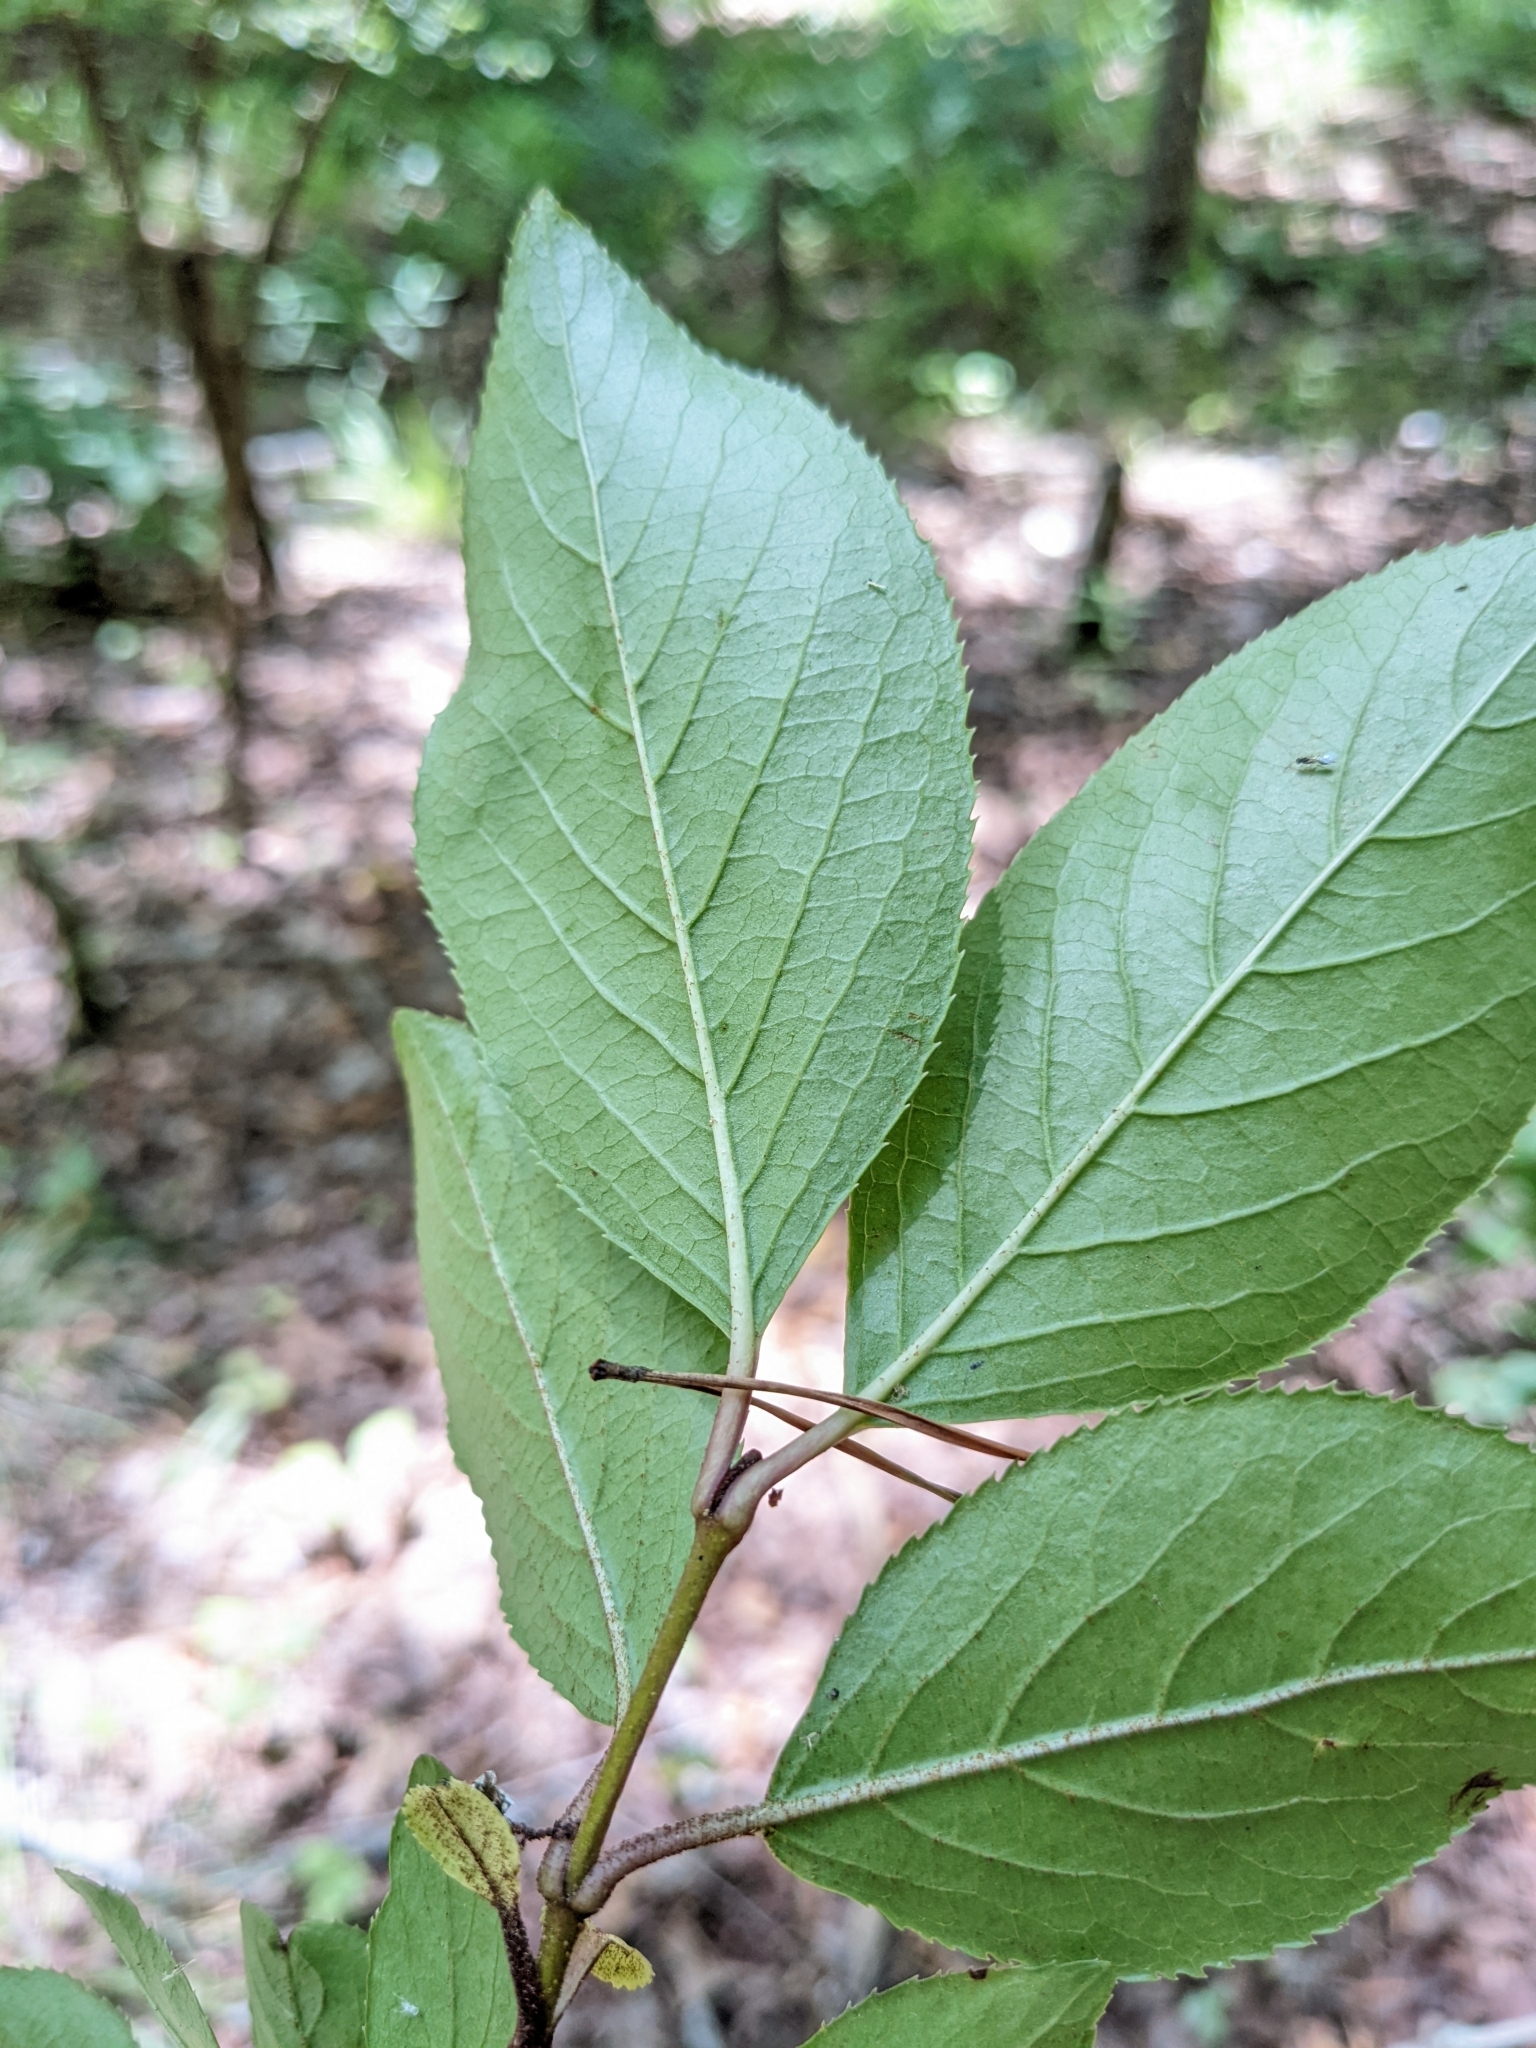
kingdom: Plantae
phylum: Tracheophyta
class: Magnoliopsida
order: Dipsacales
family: Viburnaceae
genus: Viburnum
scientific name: Viburnum rufidulum
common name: Blue haw
